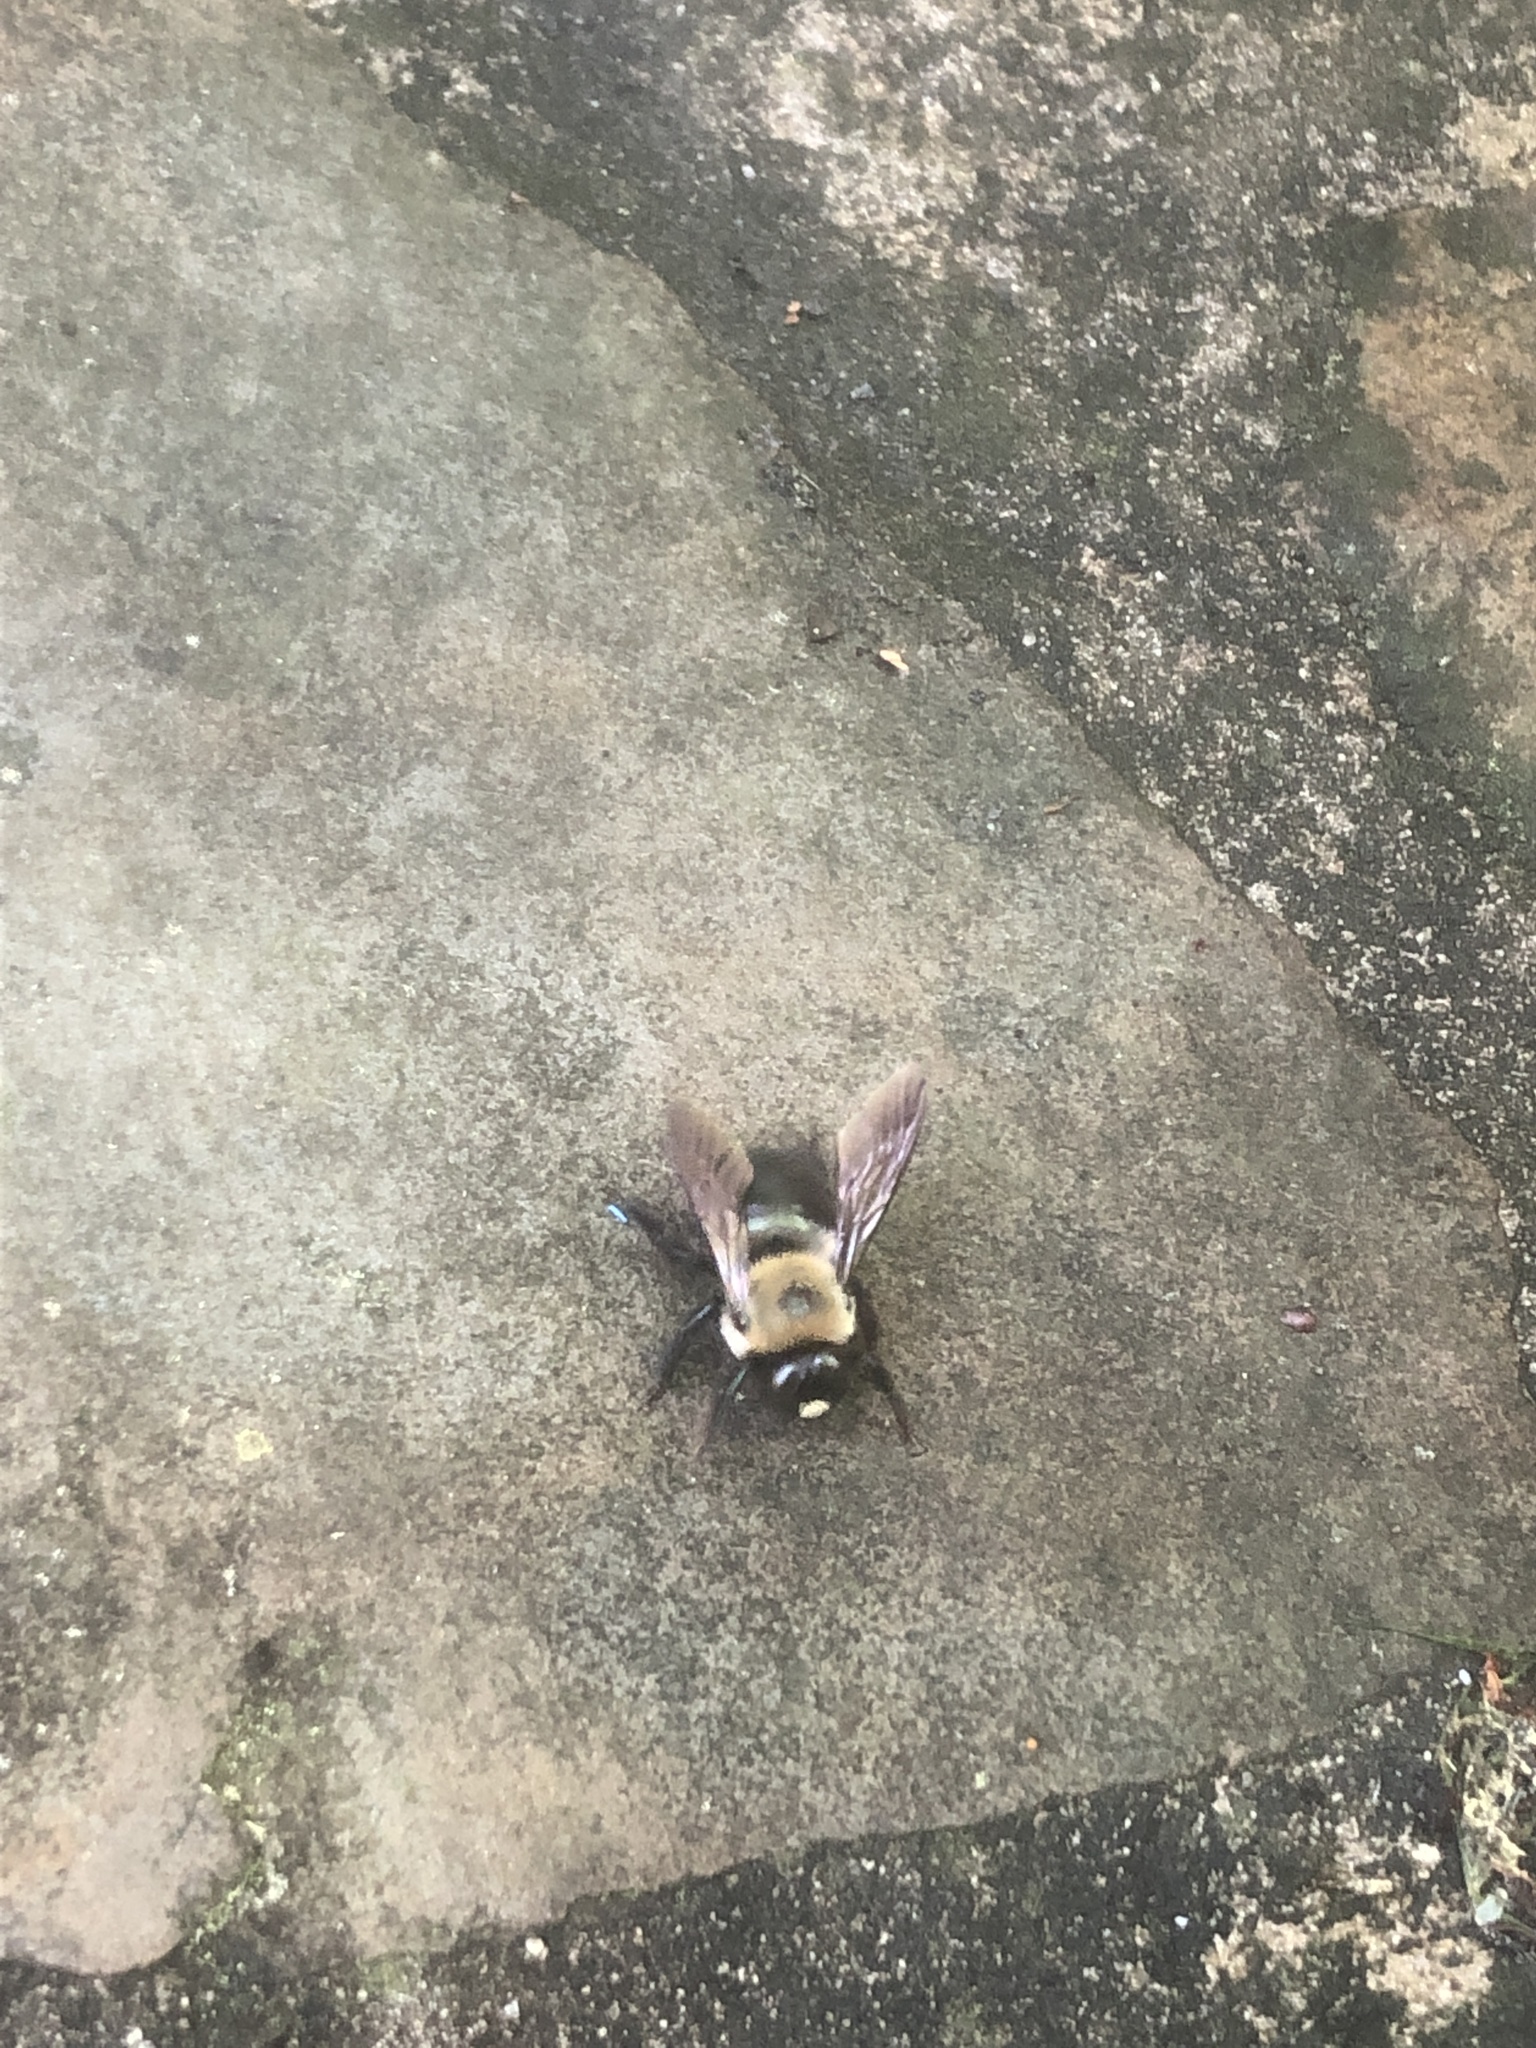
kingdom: Animalia
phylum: Arthropoda
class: Insecta
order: Hymenoptera
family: Apidae
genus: Xylocopa
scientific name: Xylocopa virginica
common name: Carpenter bee
